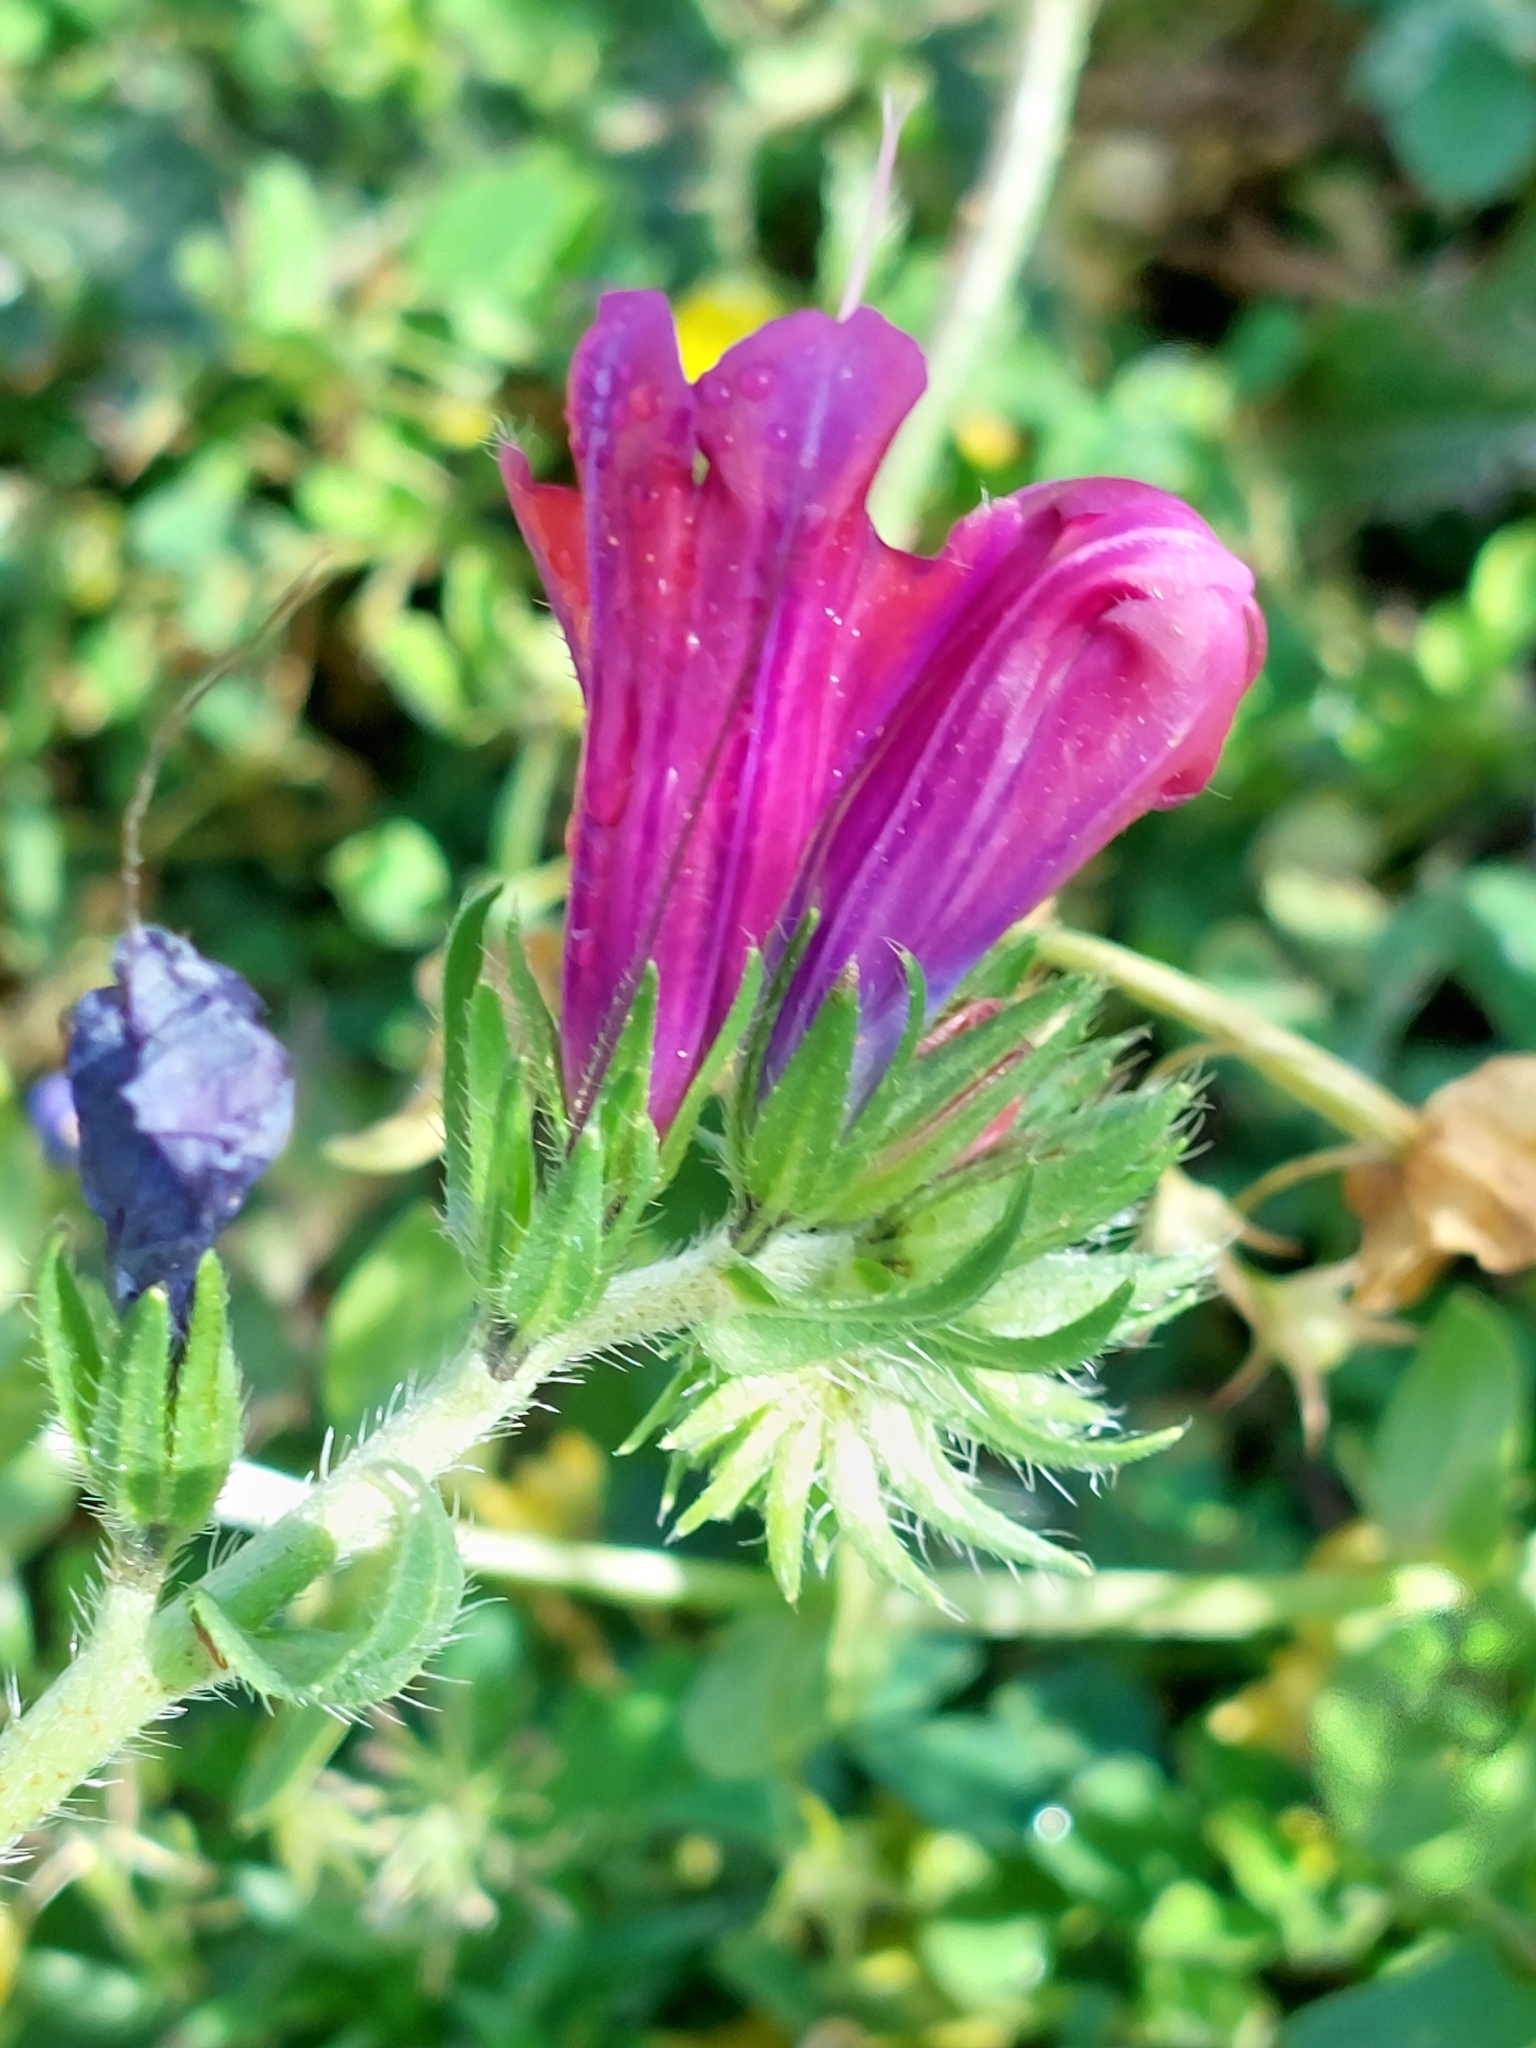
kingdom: Plantae
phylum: Tracheophyta
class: Magnoliopsida
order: Boraginales
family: Boraginaceae
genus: Echium
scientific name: Echium plantagineum
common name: Purple viper's-bugloss
